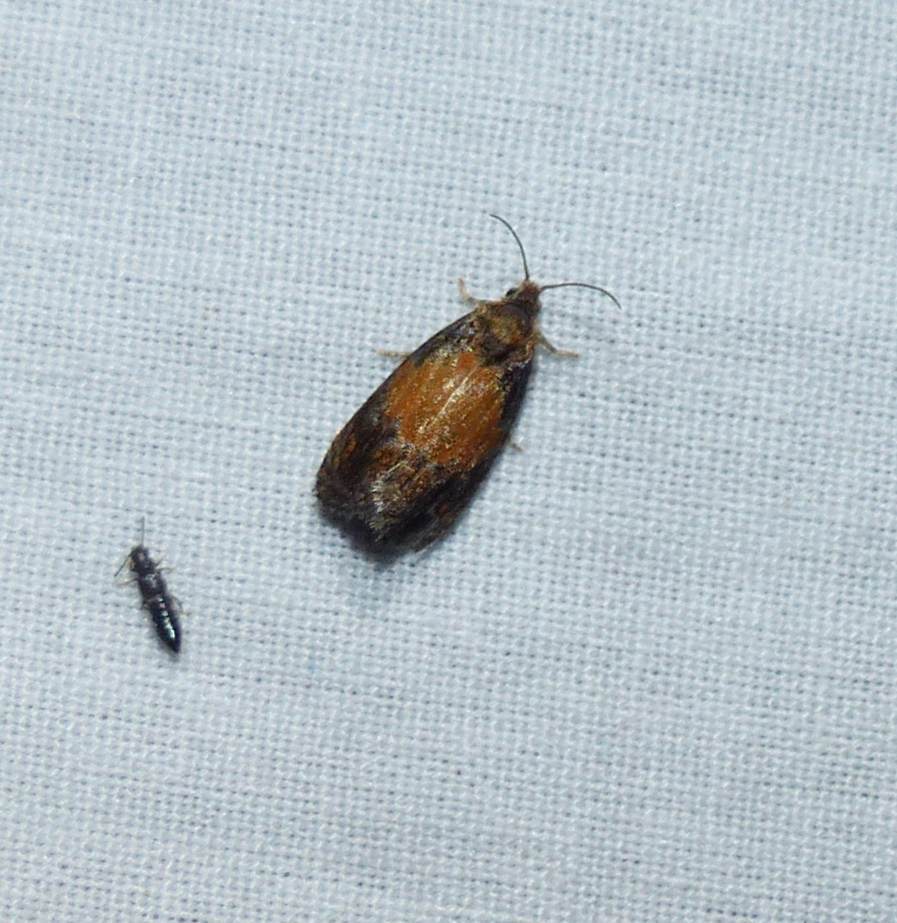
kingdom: Animalia
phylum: Arthropoda
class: Insecta
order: Lepidoptera
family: Tortricidae
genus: Olethreutes
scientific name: Olethreutes osmundana
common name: Fern olethreutes moth
